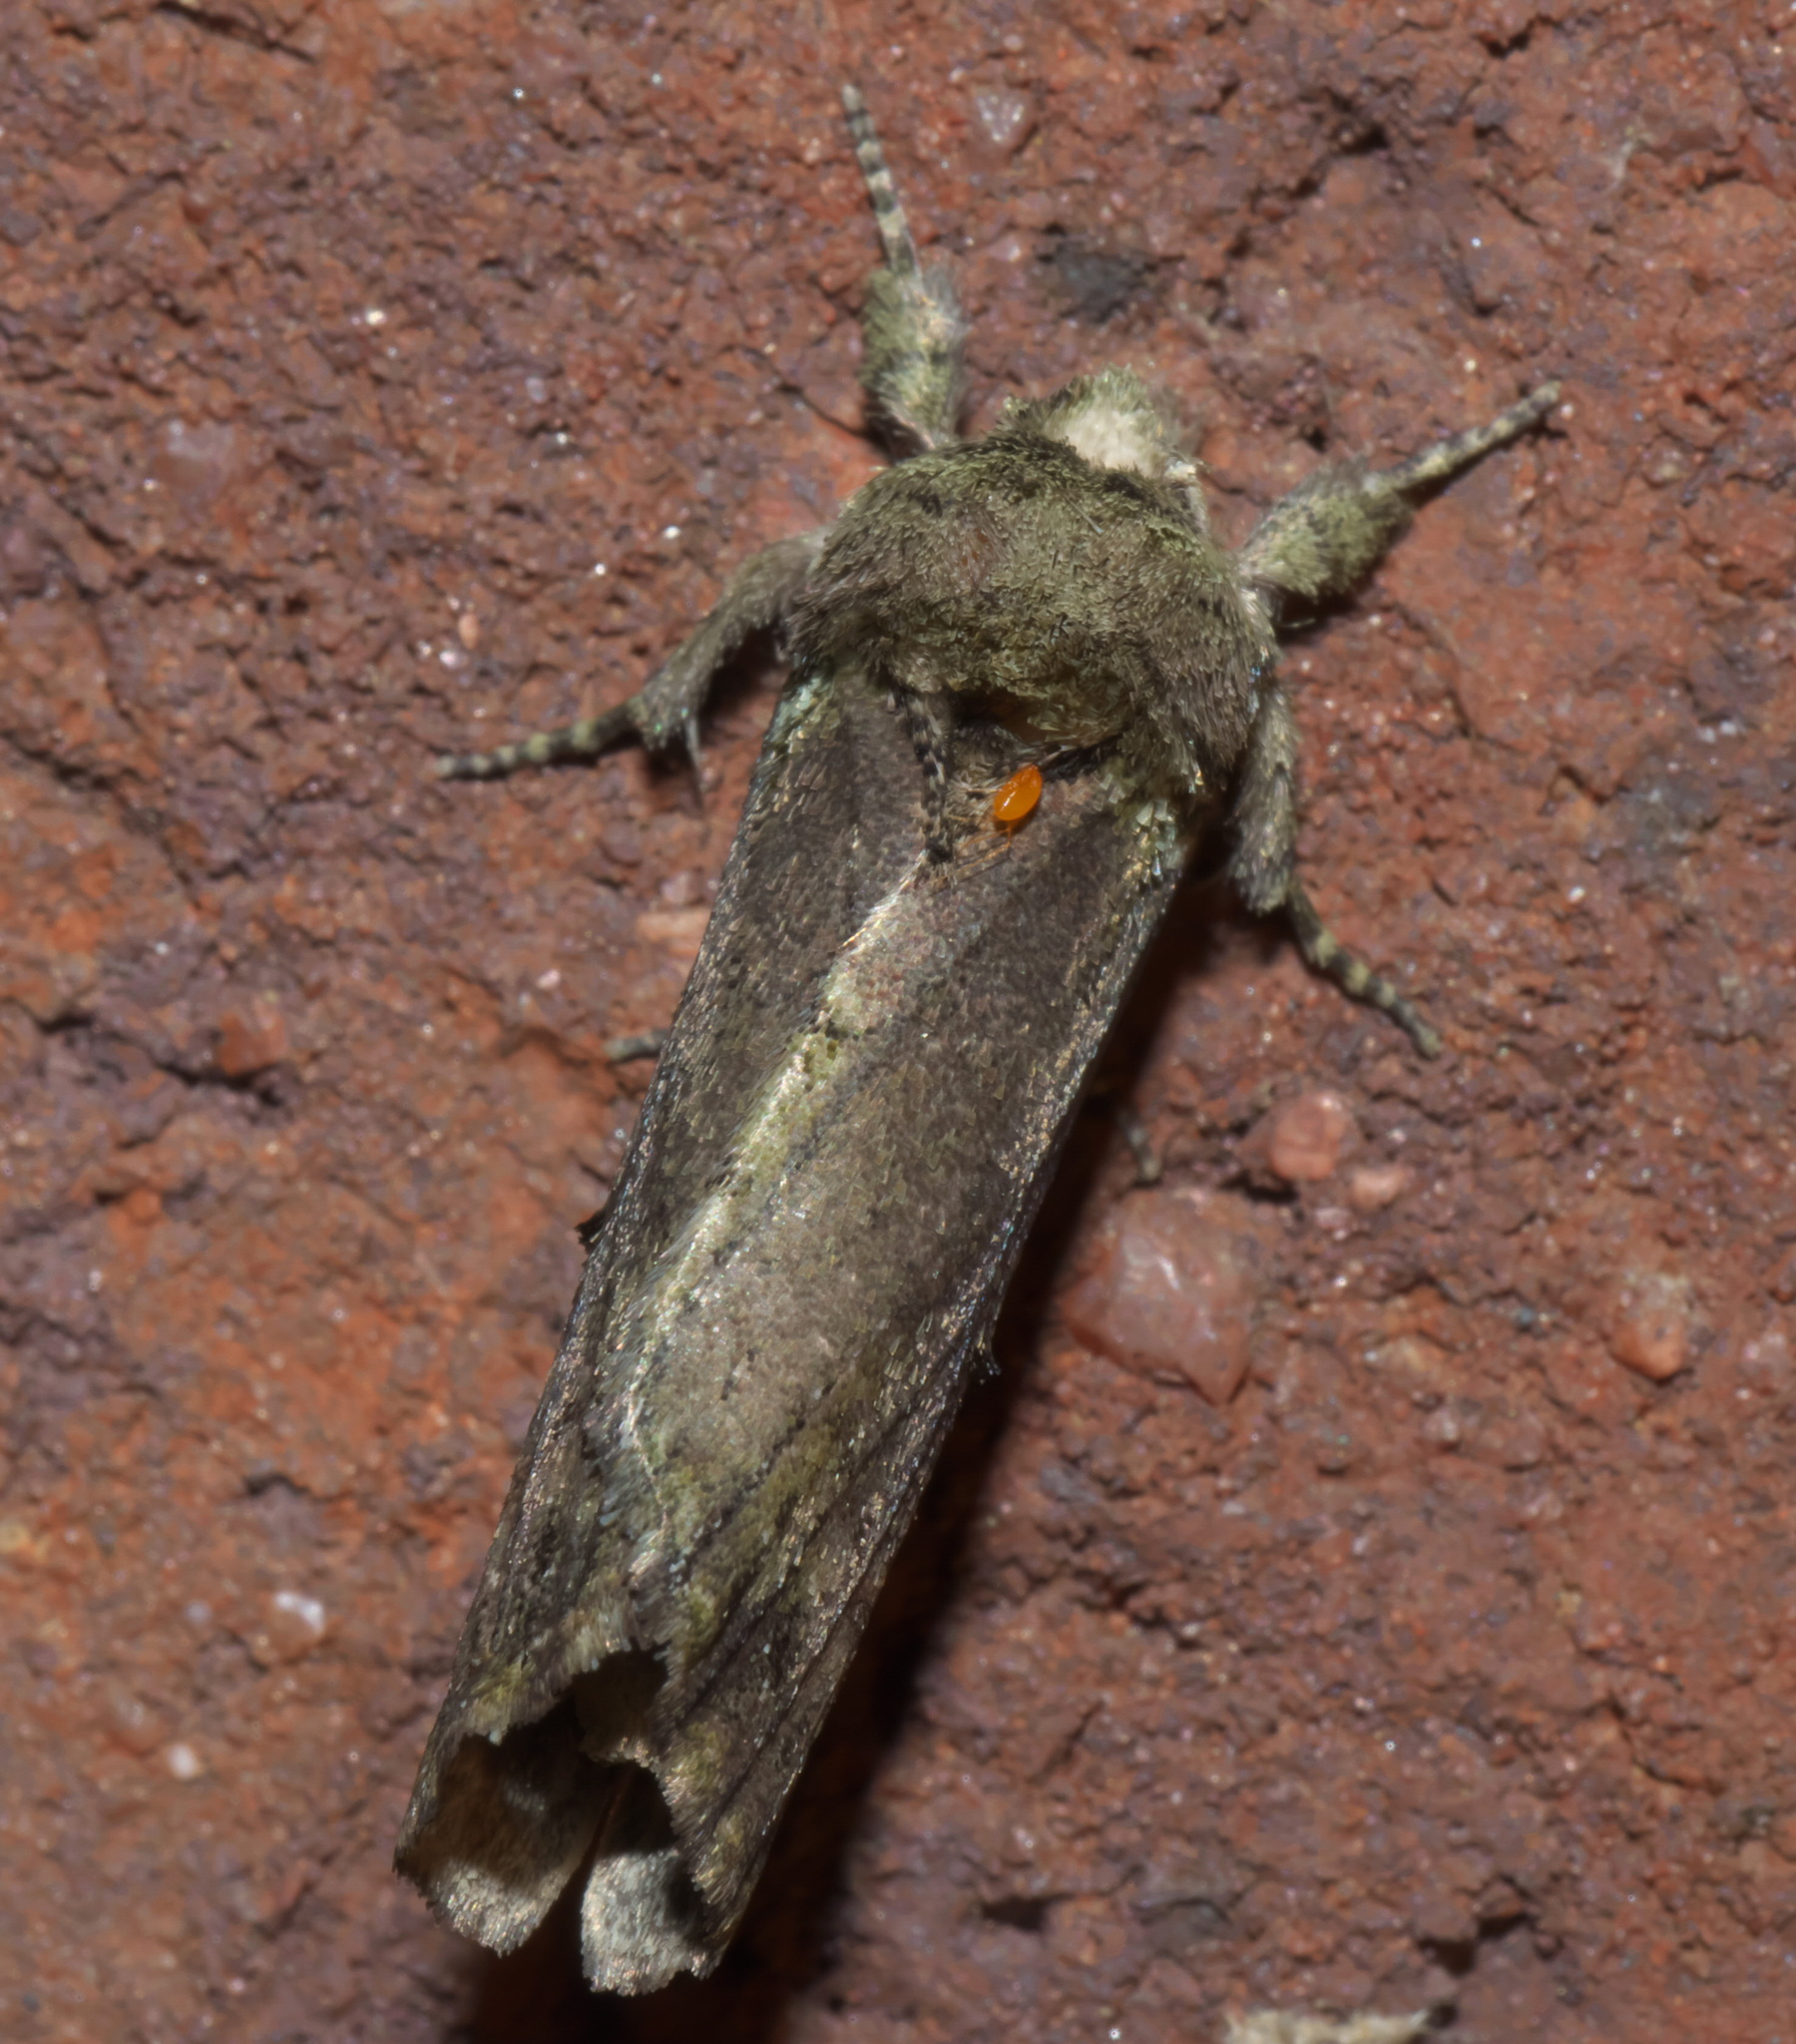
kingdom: Animalia
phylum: Arthropoda
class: Insecta
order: Lepidoptera
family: Notodontidae
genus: Schizura
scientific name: Schizura
